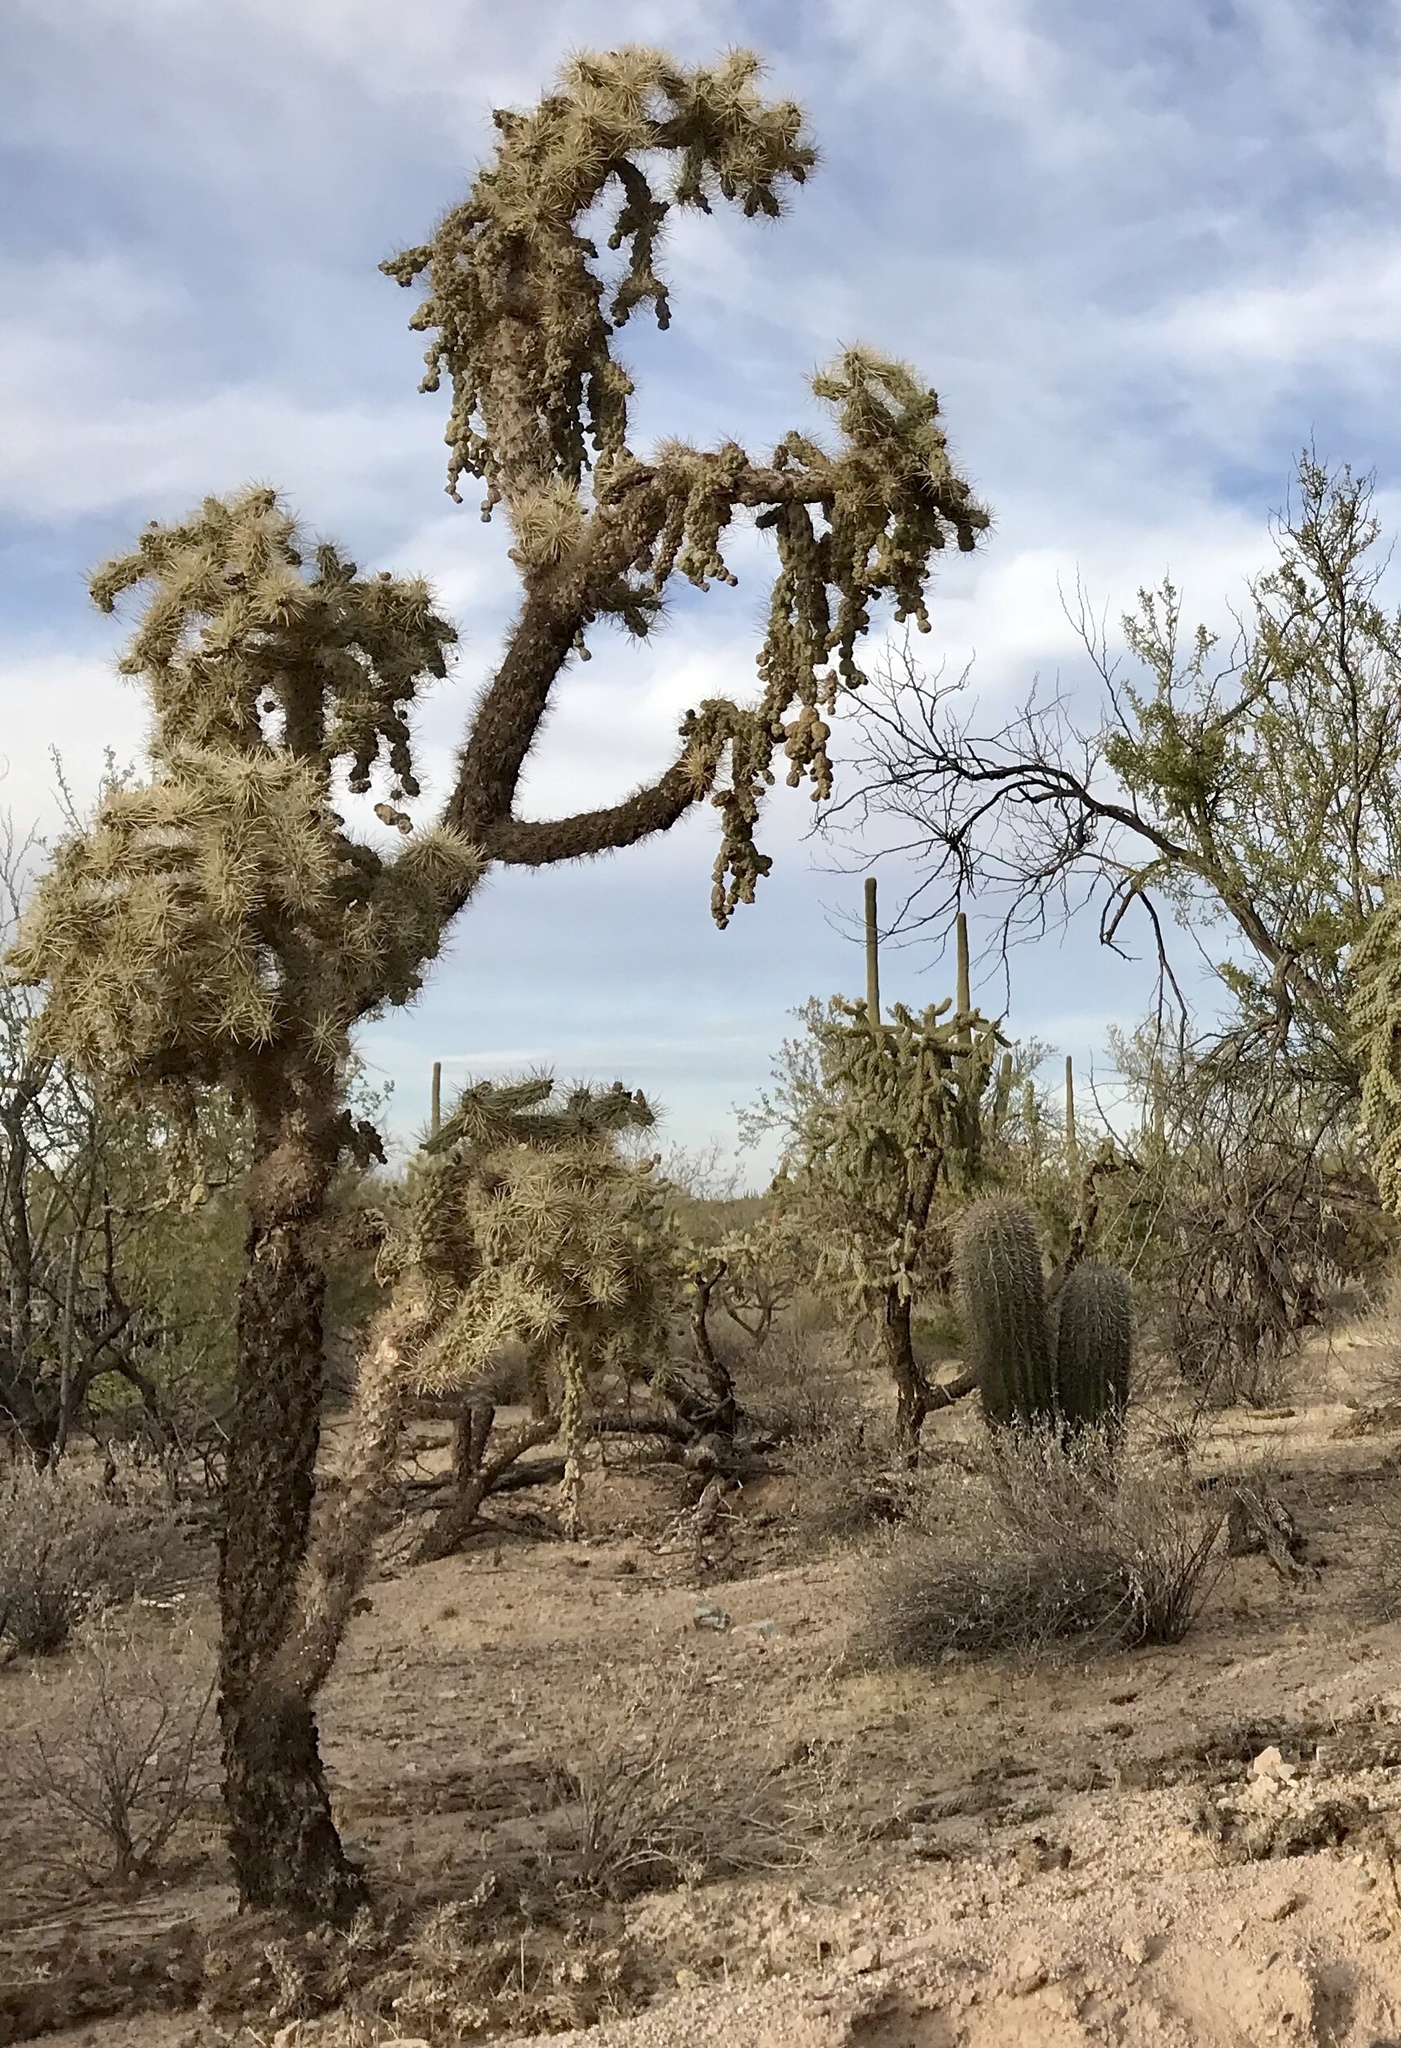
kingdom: Plantae
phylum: Tracheophyta
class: Magnoliopsida
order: Caryophyllales
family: Cactaceae
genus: Cylindropuntia
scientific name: Cylindropuntia fulgida
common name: Jumping cholla
